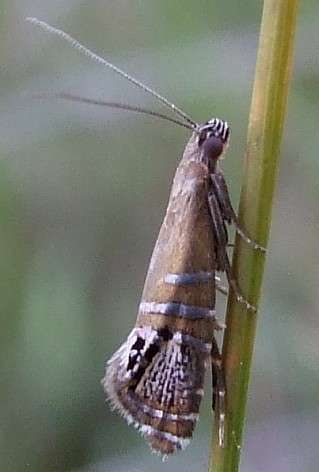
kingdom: Animalia
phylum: Arthropoda
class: Insecta
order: Lepidoptera
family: Glyphipterigidae
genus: Glyphipterix
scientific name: Glyphipterix cometophora
